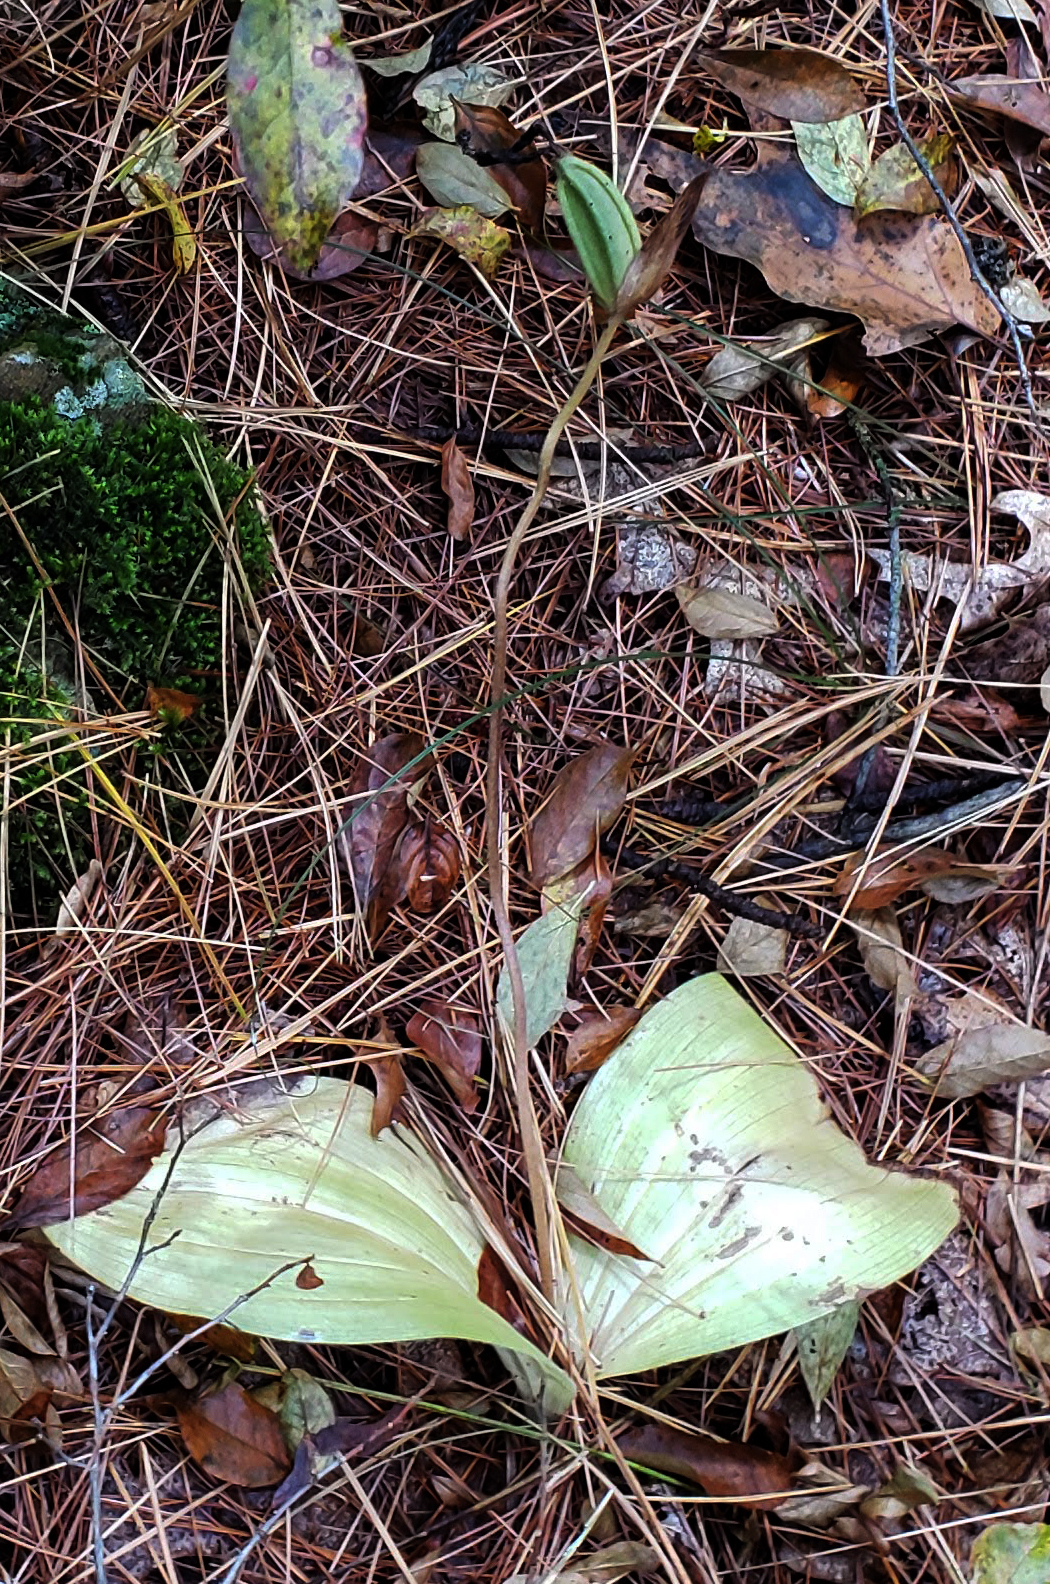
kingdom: Plantae
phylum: Tracheophyta
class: Liliopsida
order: Asparagales
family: Orchidaceae
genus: Cypripedium
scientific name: Cypripedium acaule
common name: Pink lady's-slipper
